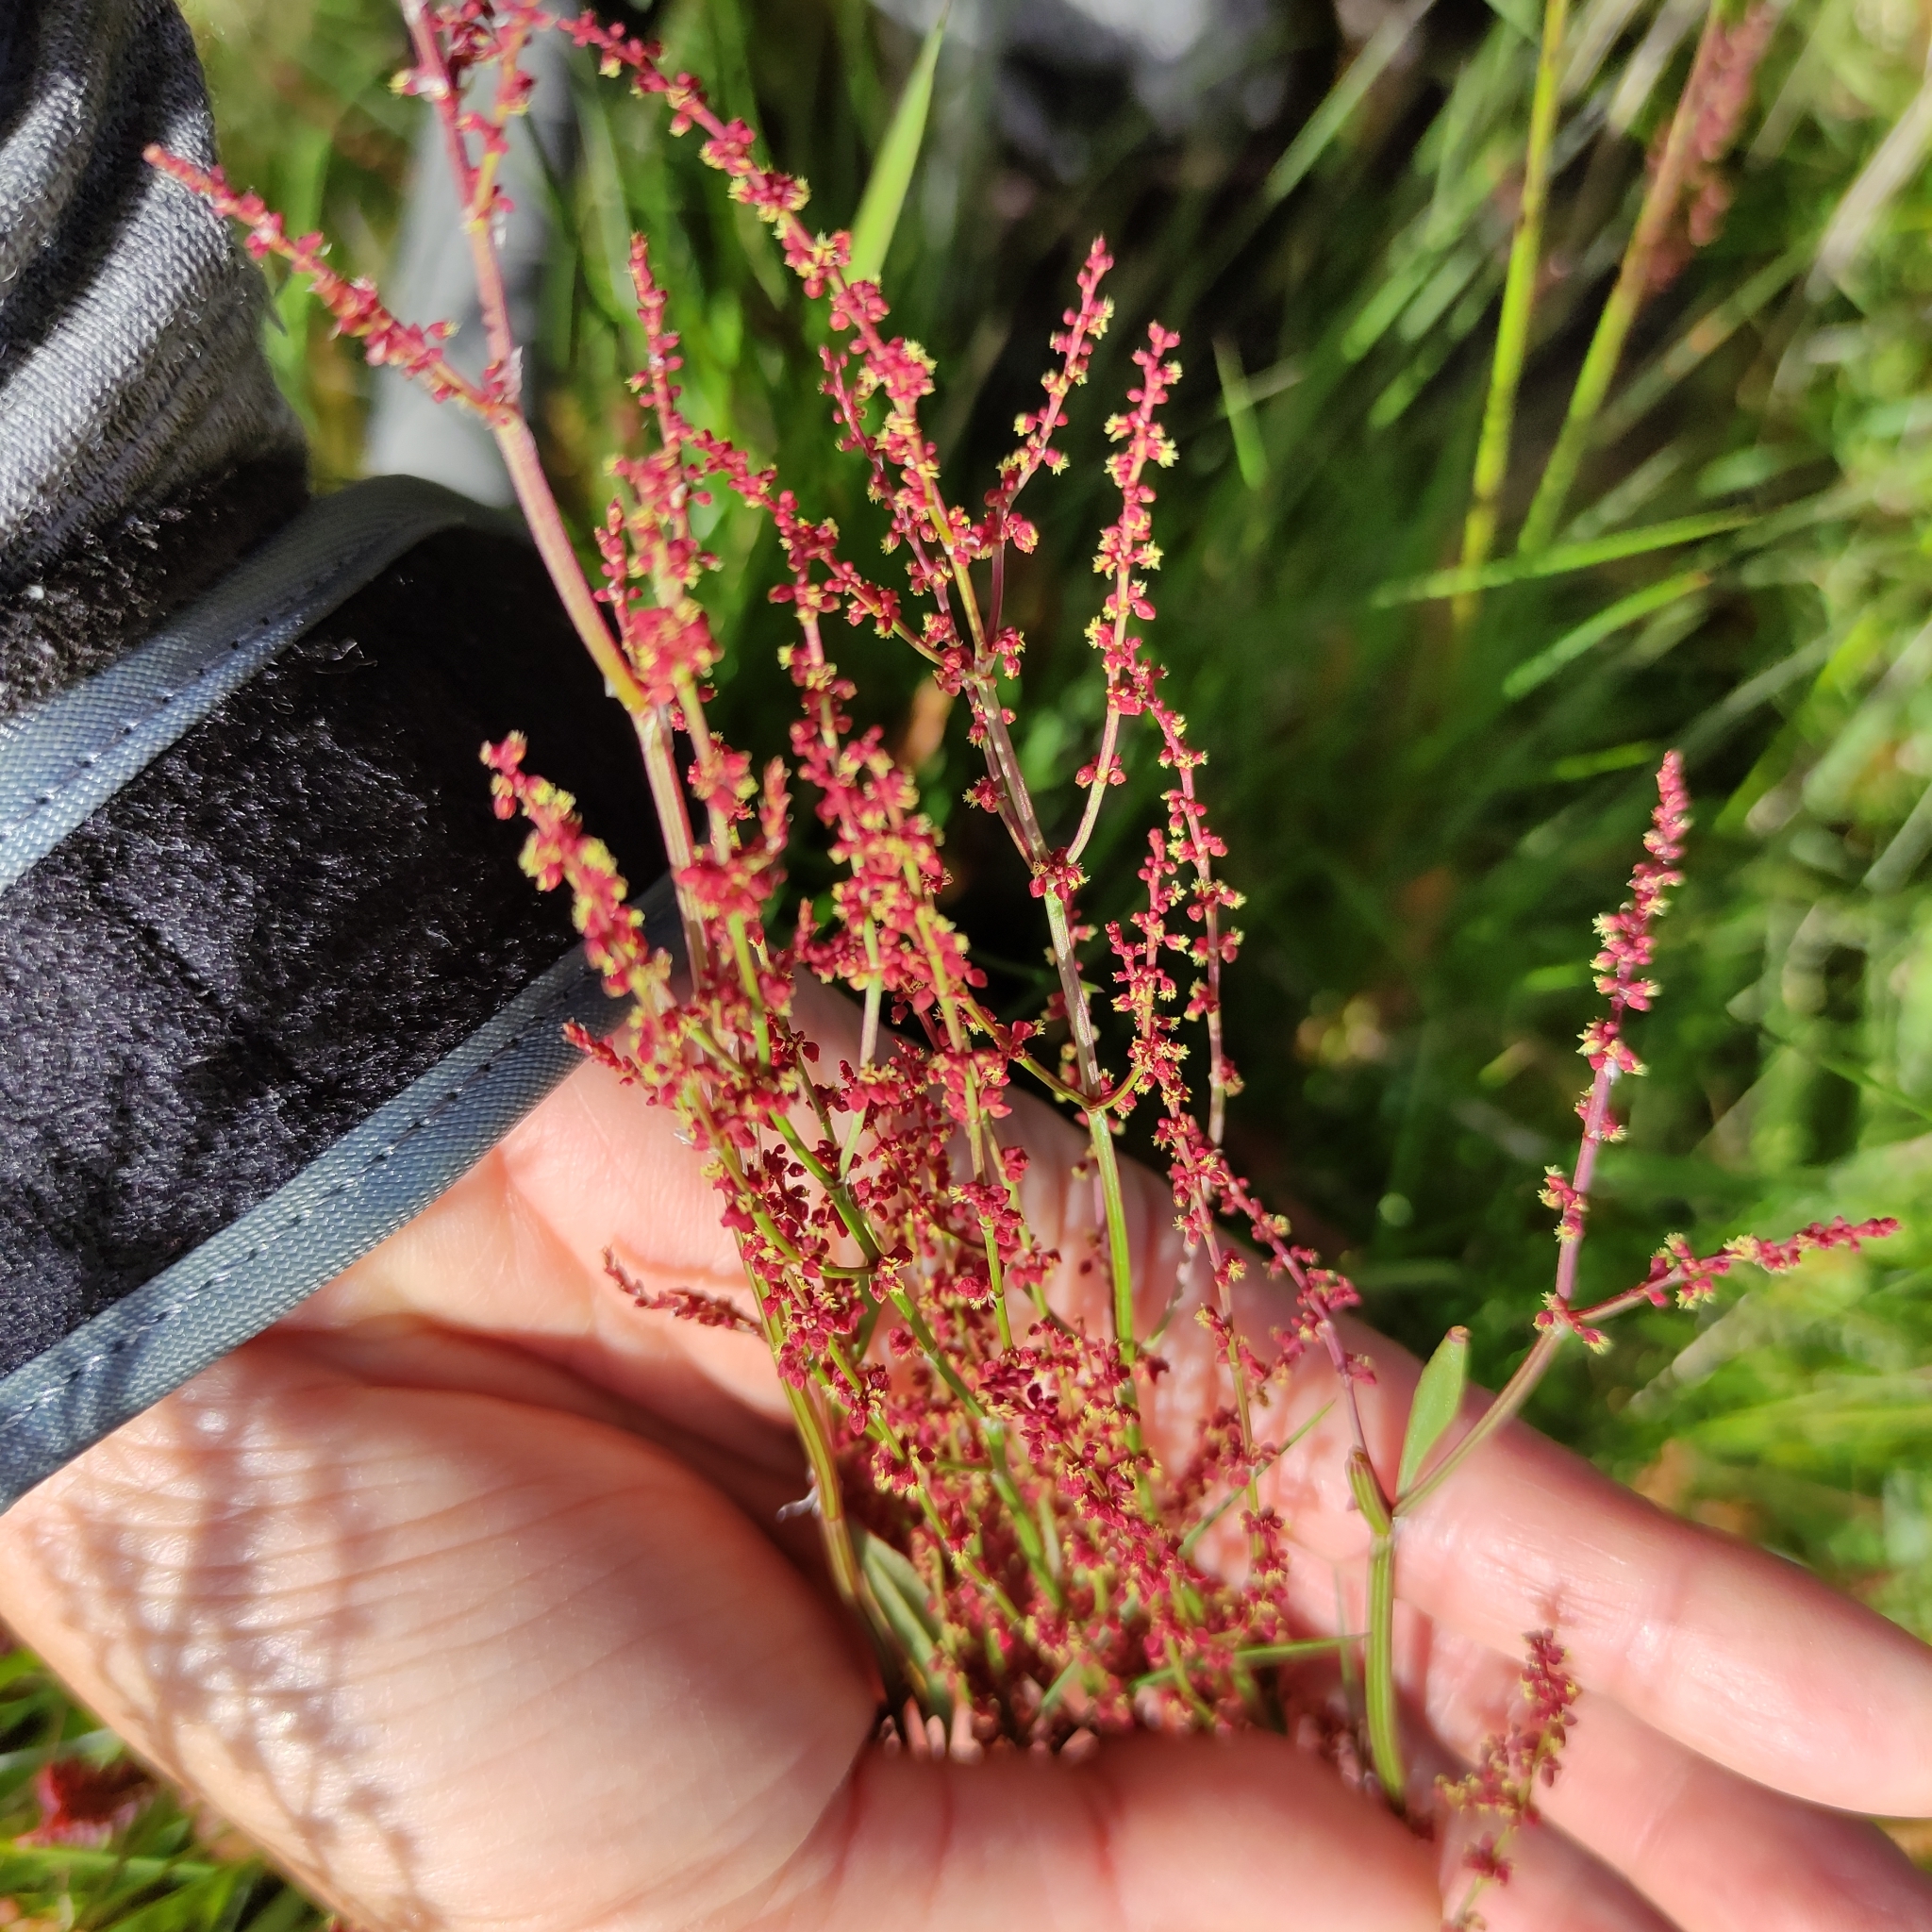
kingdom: Plantae
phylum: Tracheophyta
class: Magnoliopsida
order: Caryophyllales
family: Polygonaceae
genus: Rumex
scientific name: Rumex acetosella
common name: Common sheep sorrel
